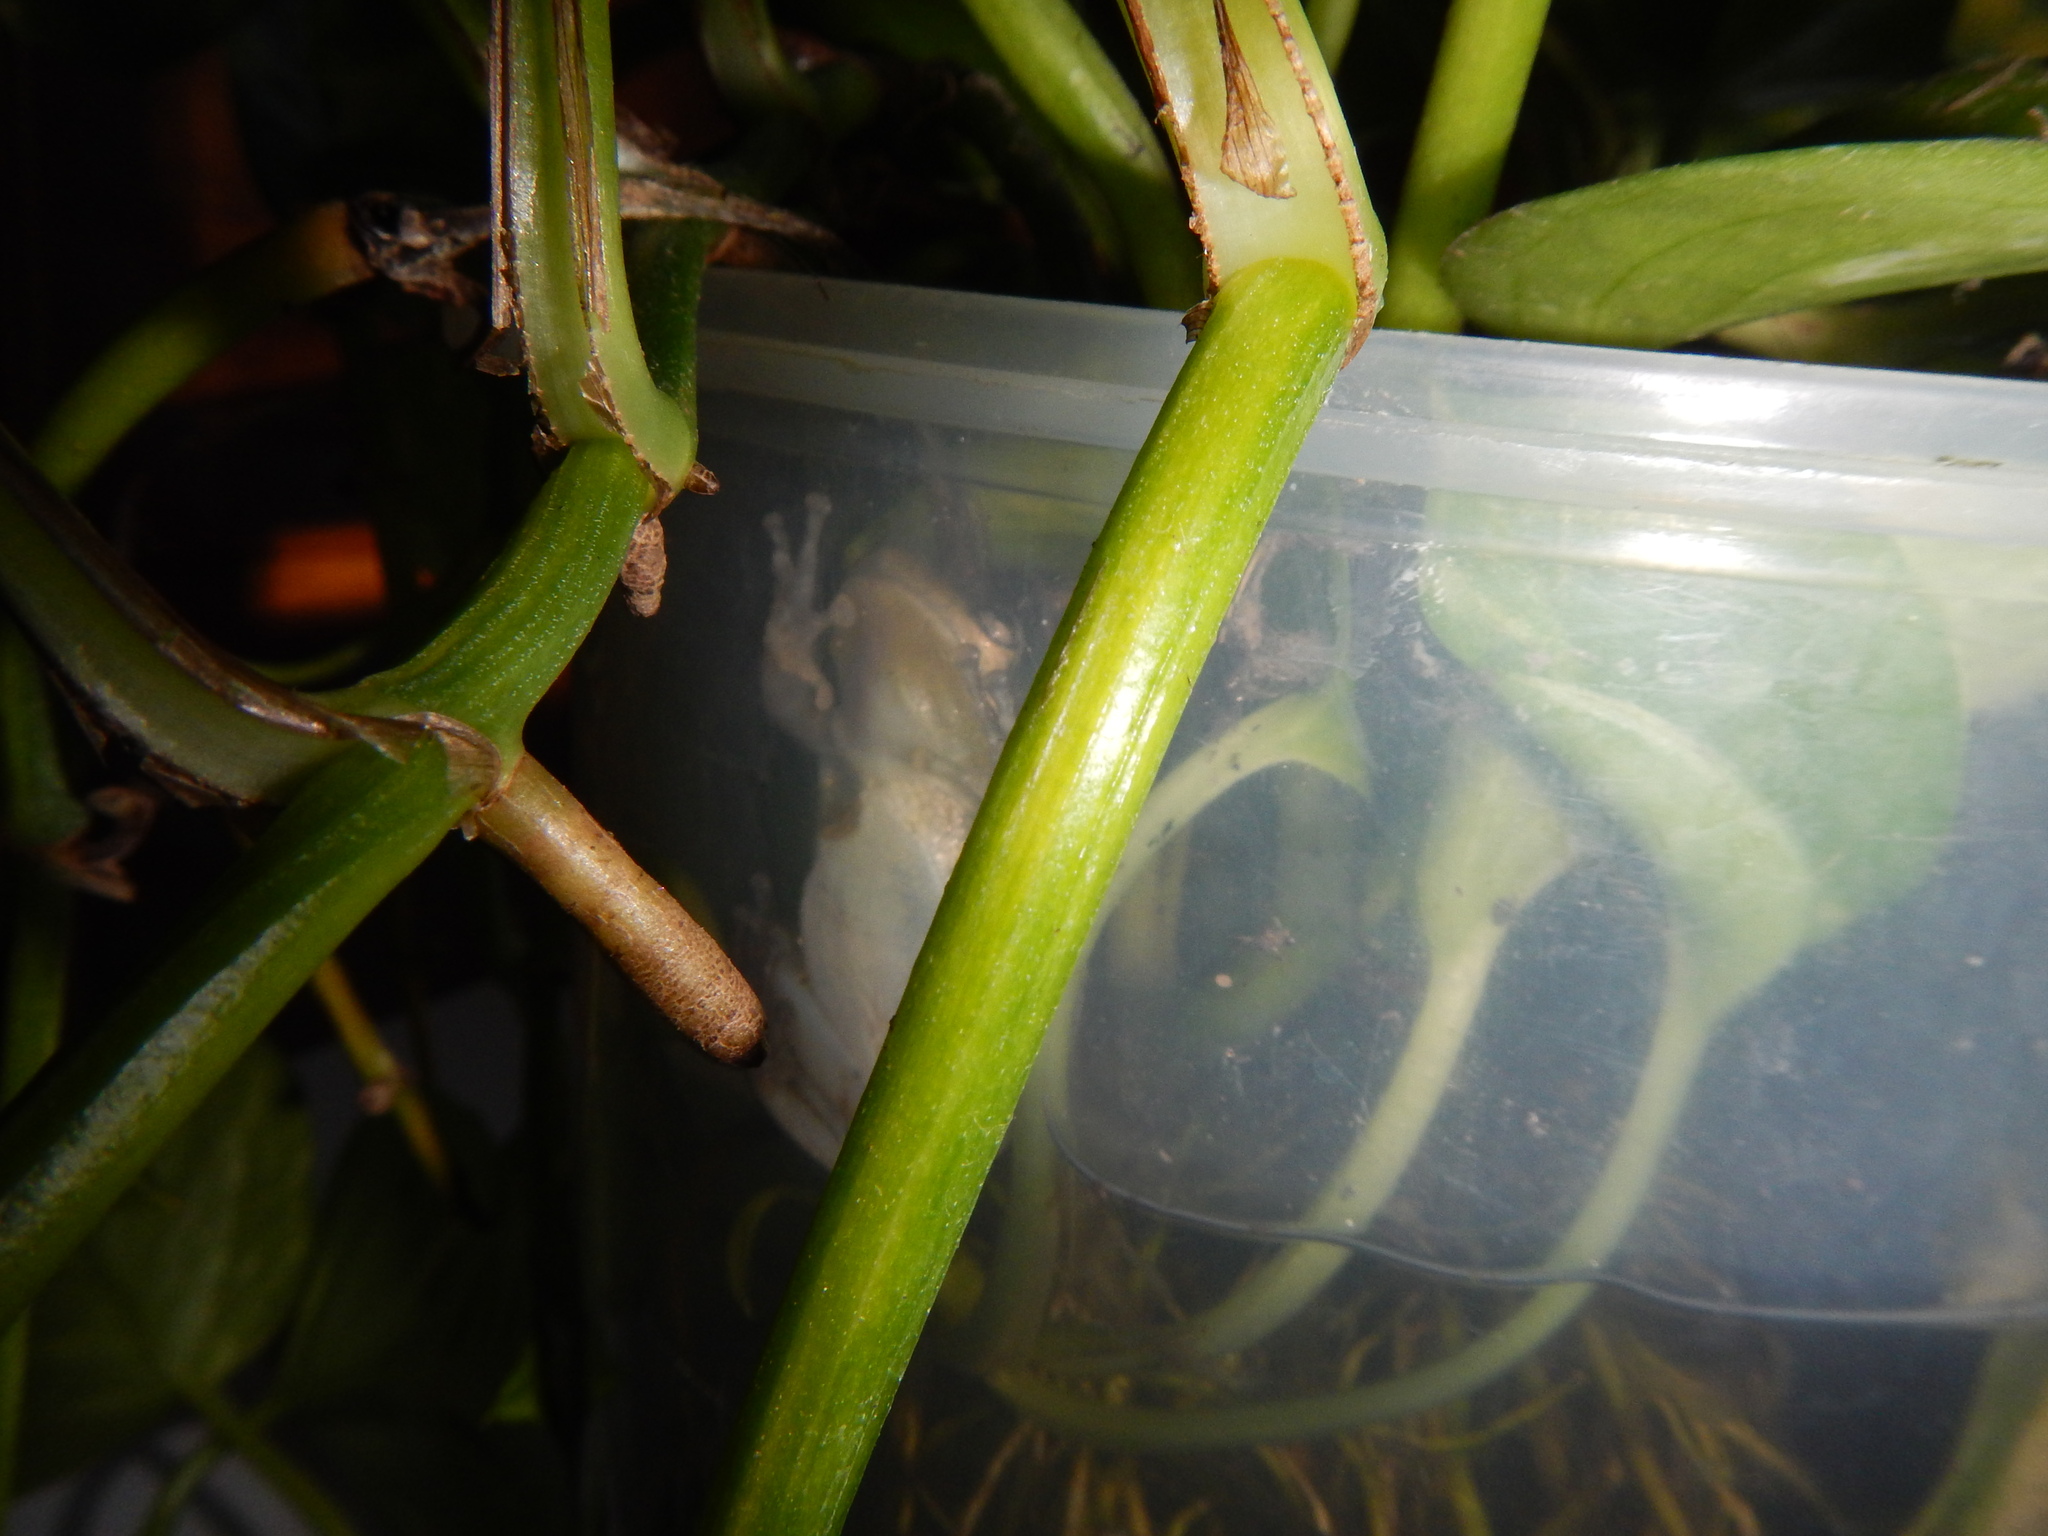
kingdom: Animalia
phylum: Chordata
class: Amphibia
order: Anura
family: Hylidae
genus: Scinax
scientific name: Scinax granulatus
